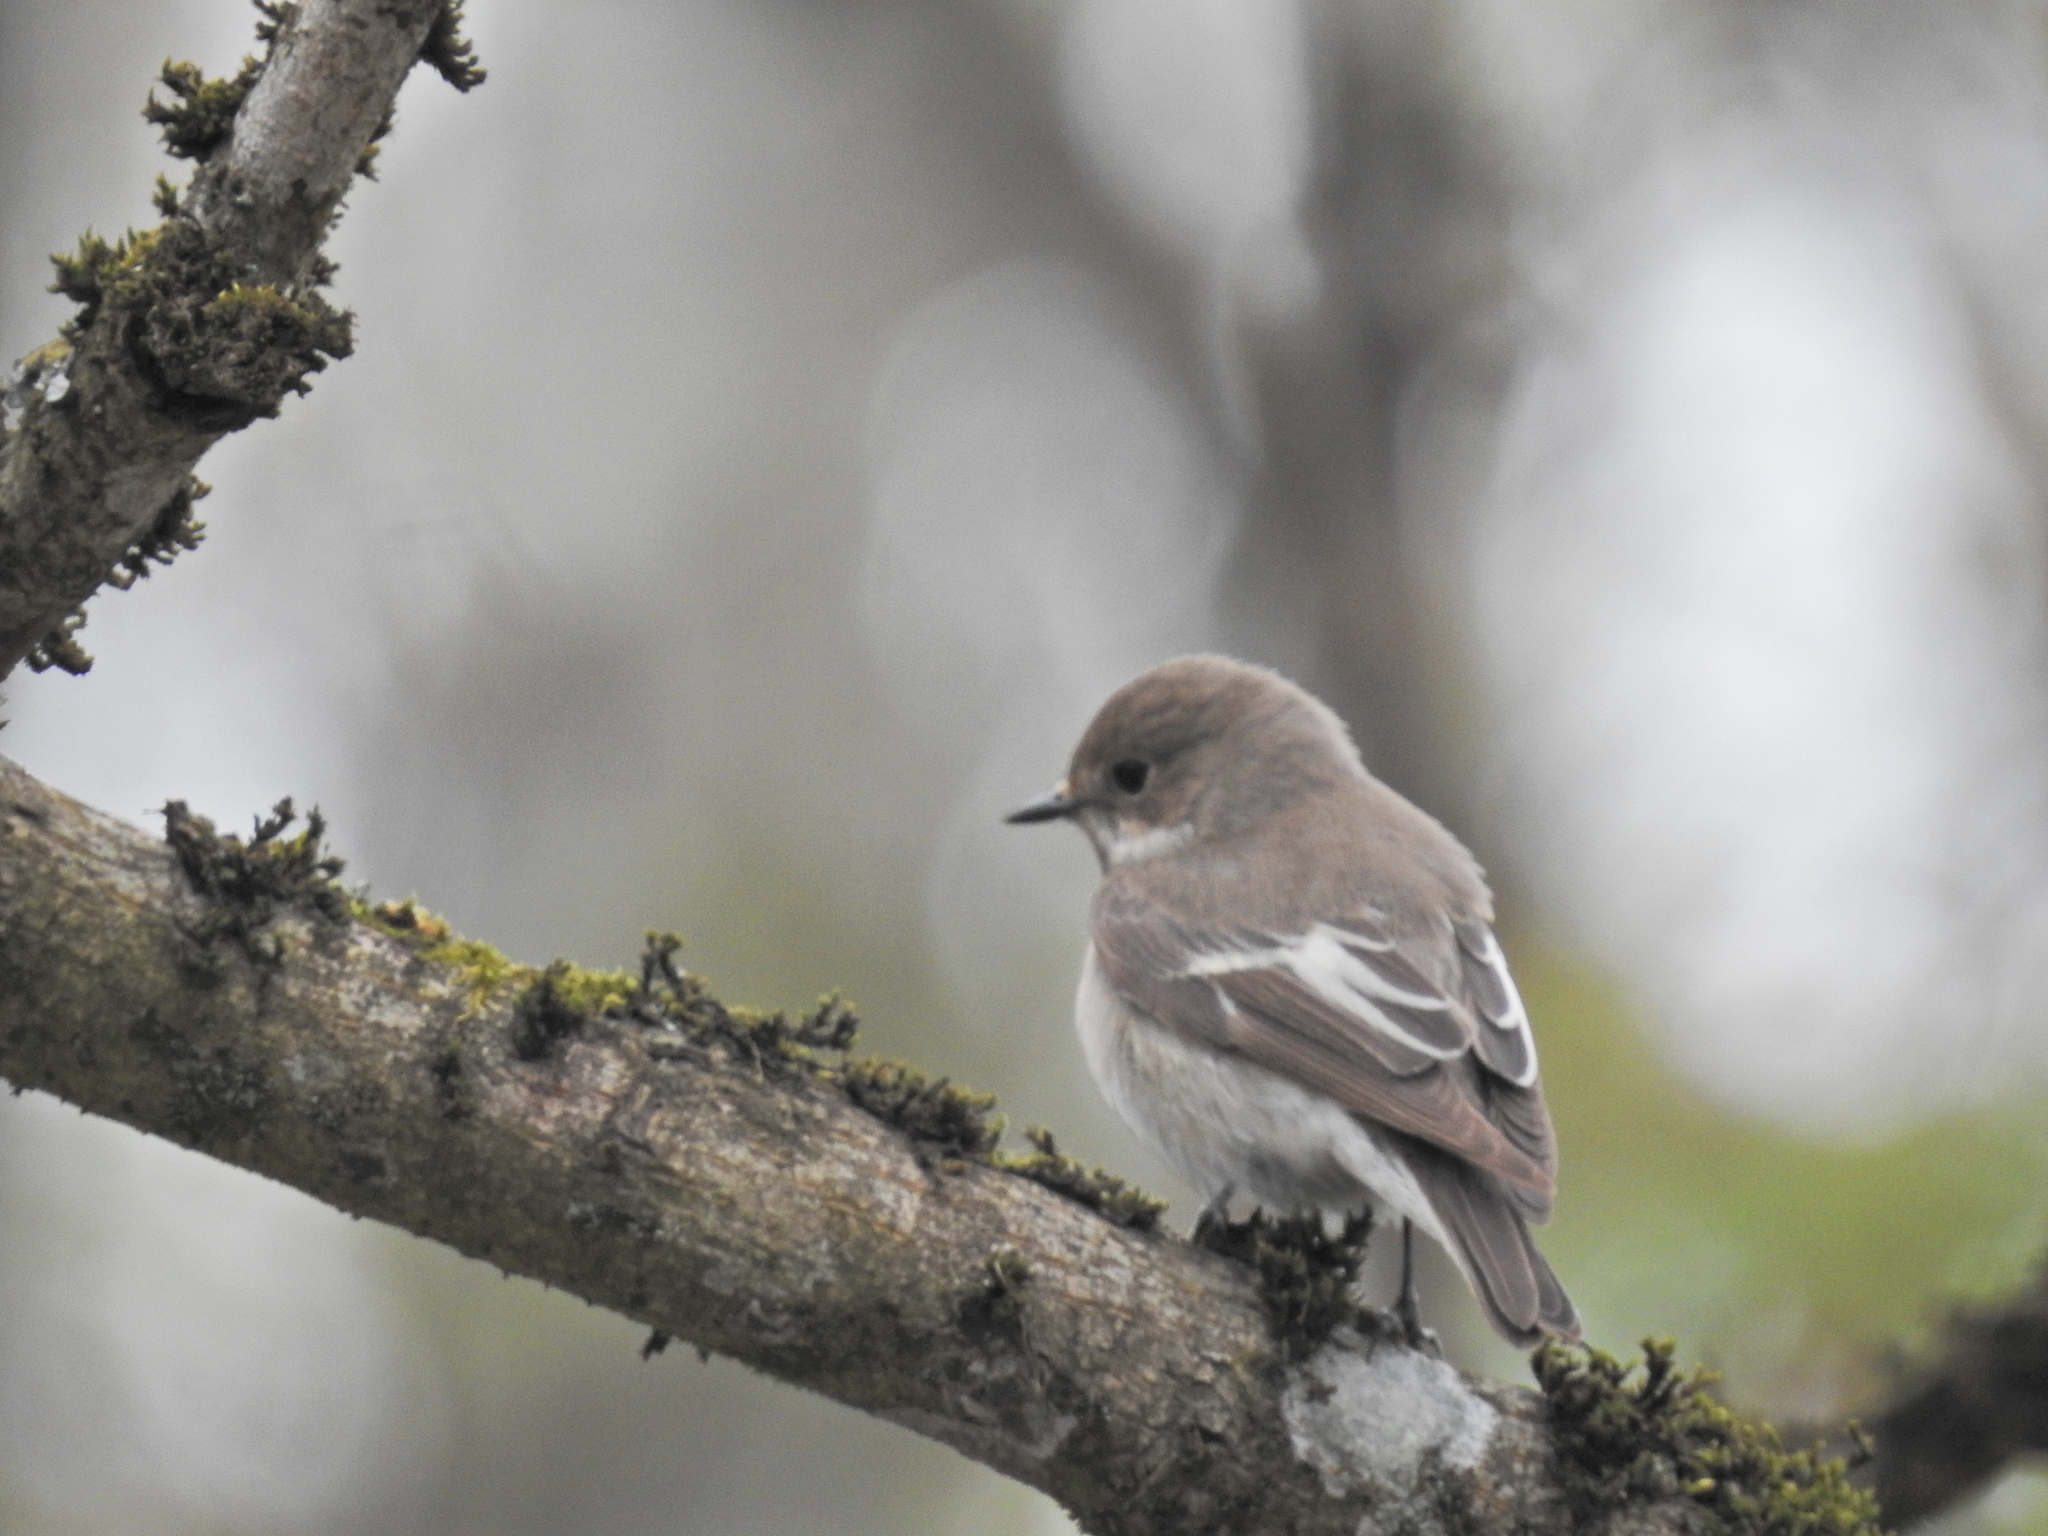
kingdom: Animalia
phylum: Chordata
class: Aves
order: Passeriformes
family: Muscicapidae
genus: Ficedula
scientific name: Ficedula hypoleuca
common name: European pied flycatcher
